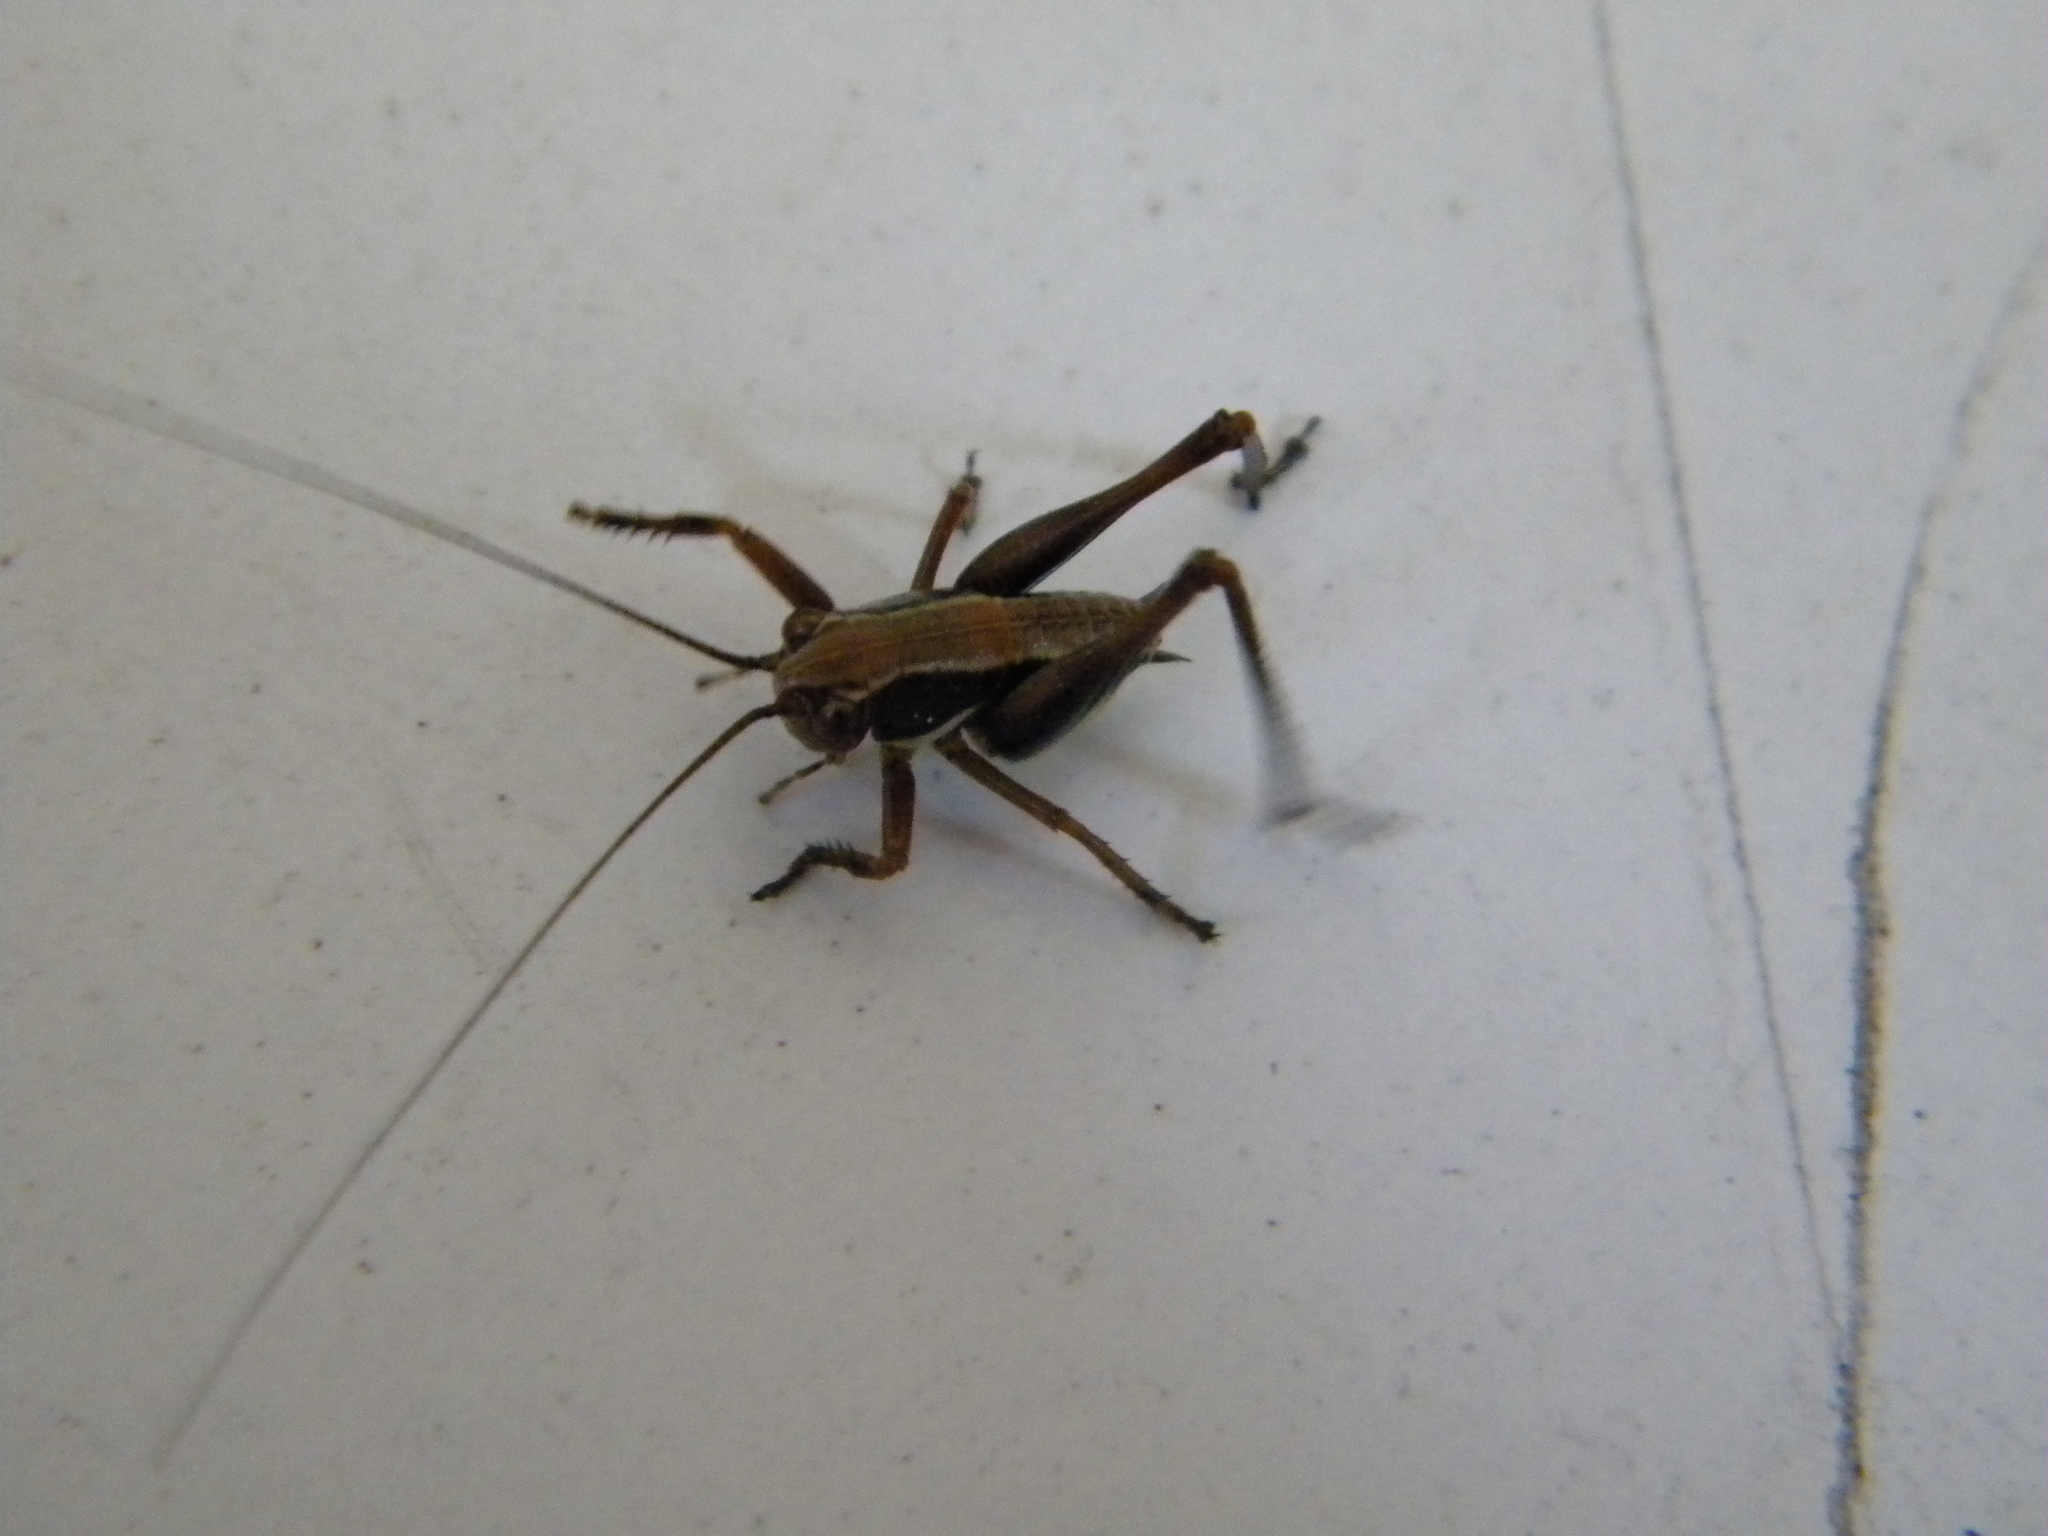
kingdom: Animalia
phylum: Arthropoda
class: Insecta
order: Orthoptera
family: Tettigoniidae
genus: Eupholidoptera
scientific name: Eupholidoptera
